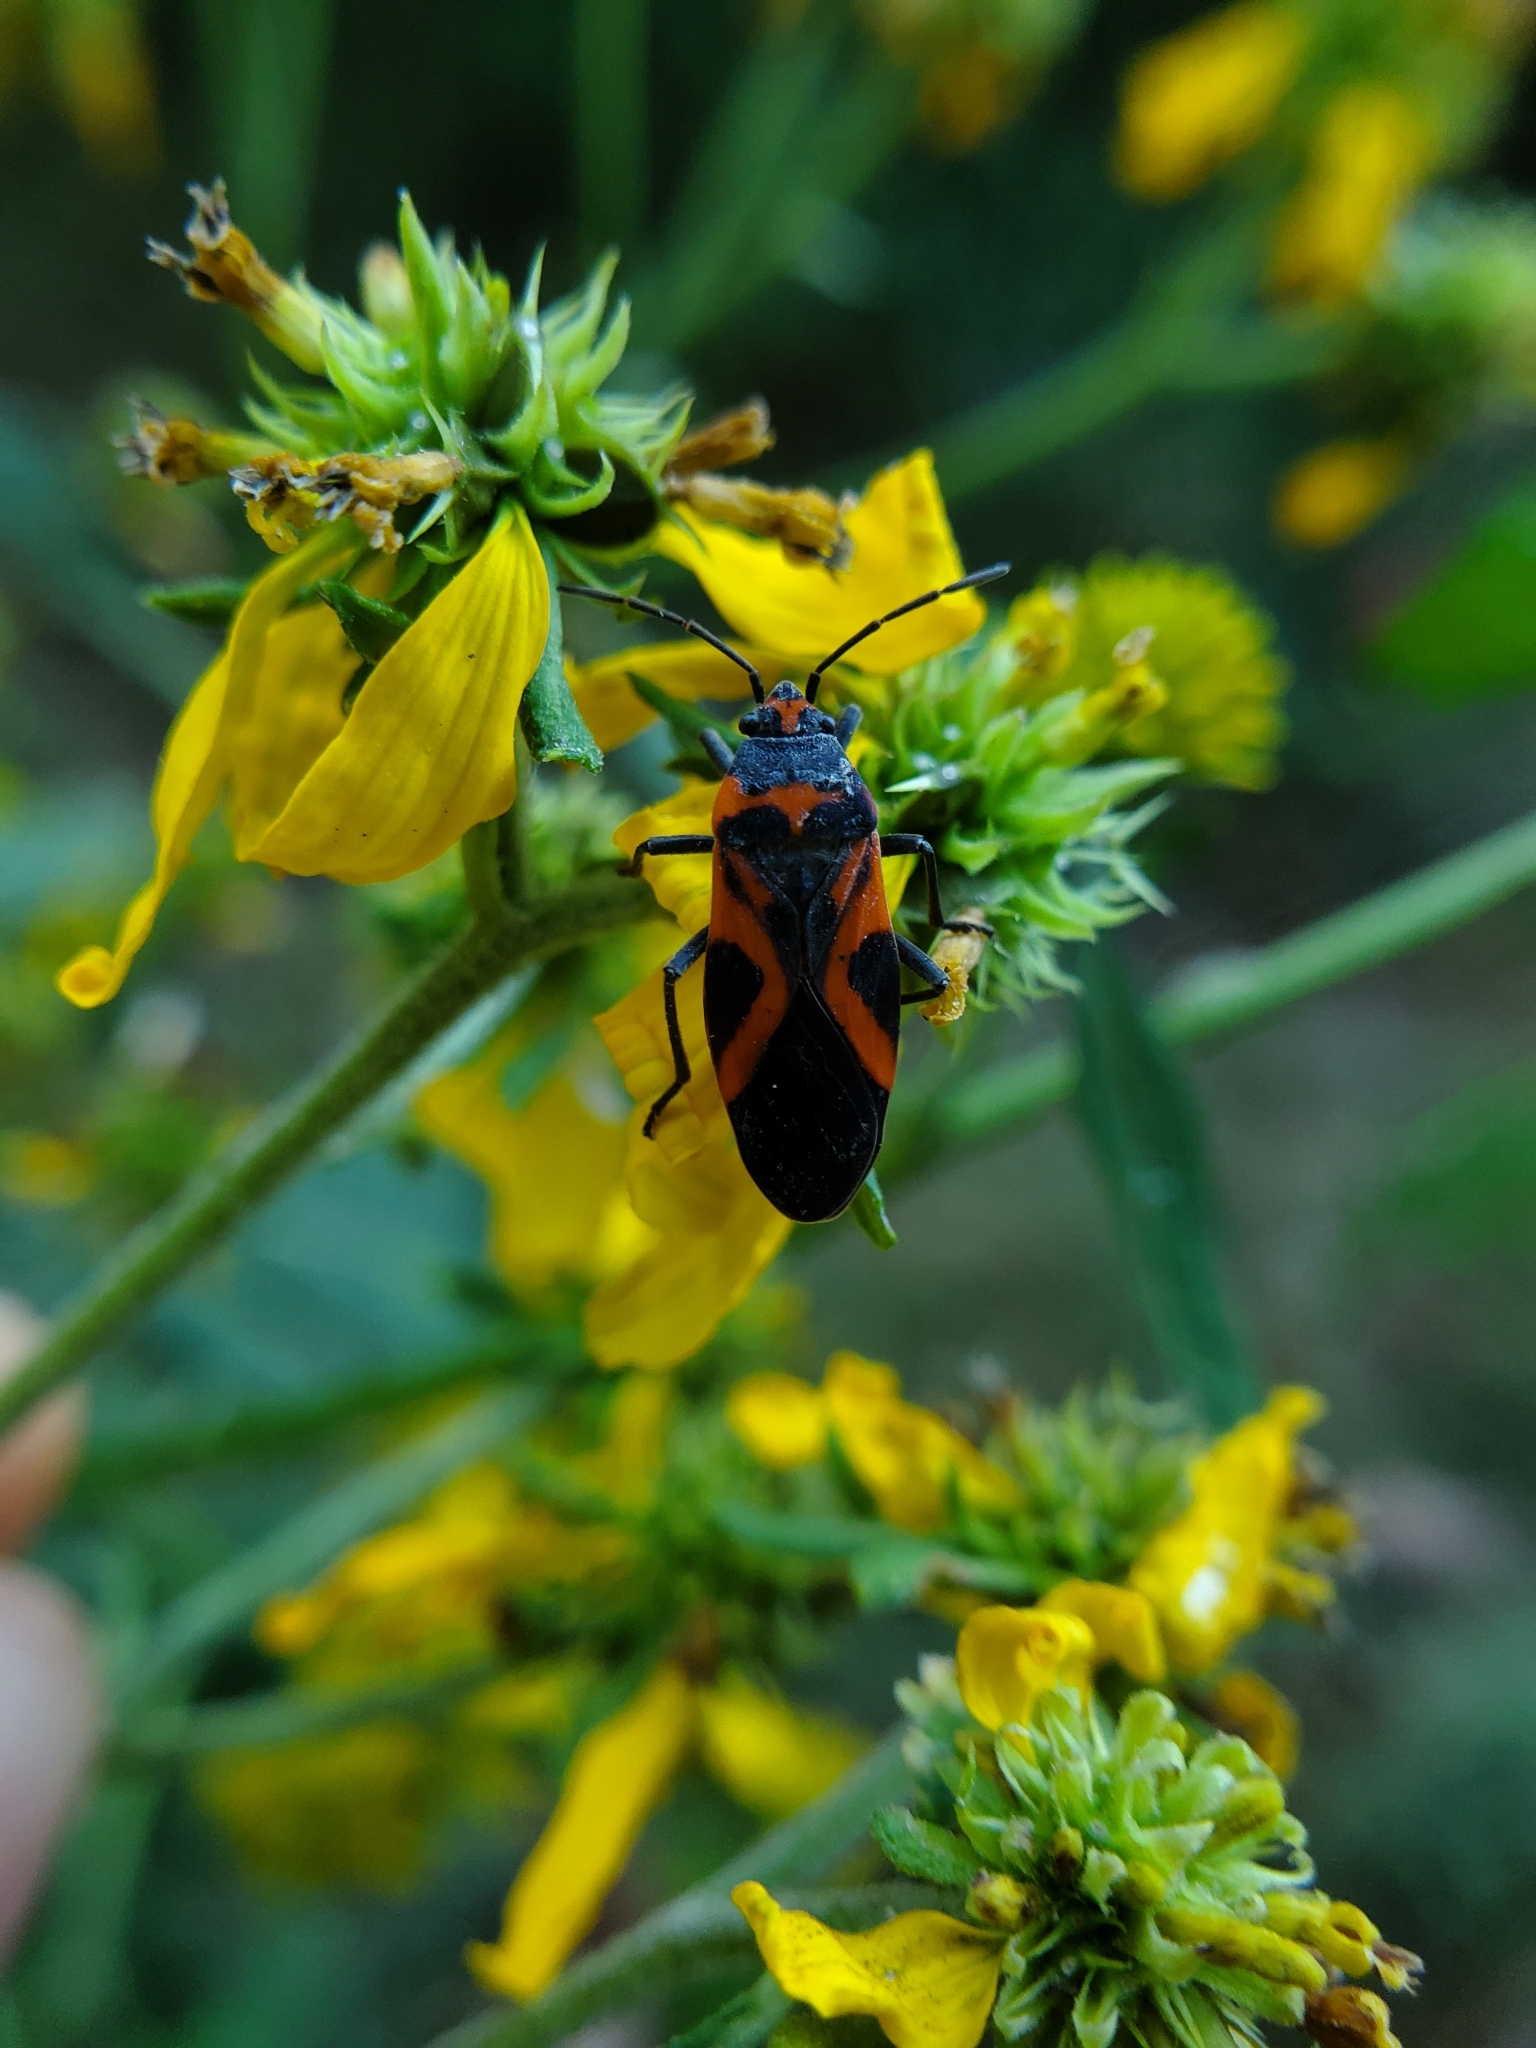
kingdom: Animalia
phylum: Arthropoda
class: Insecta
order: Hemiptera
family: Lygaeidae
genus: Lygaeus
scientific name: Lygaeus turcicus
